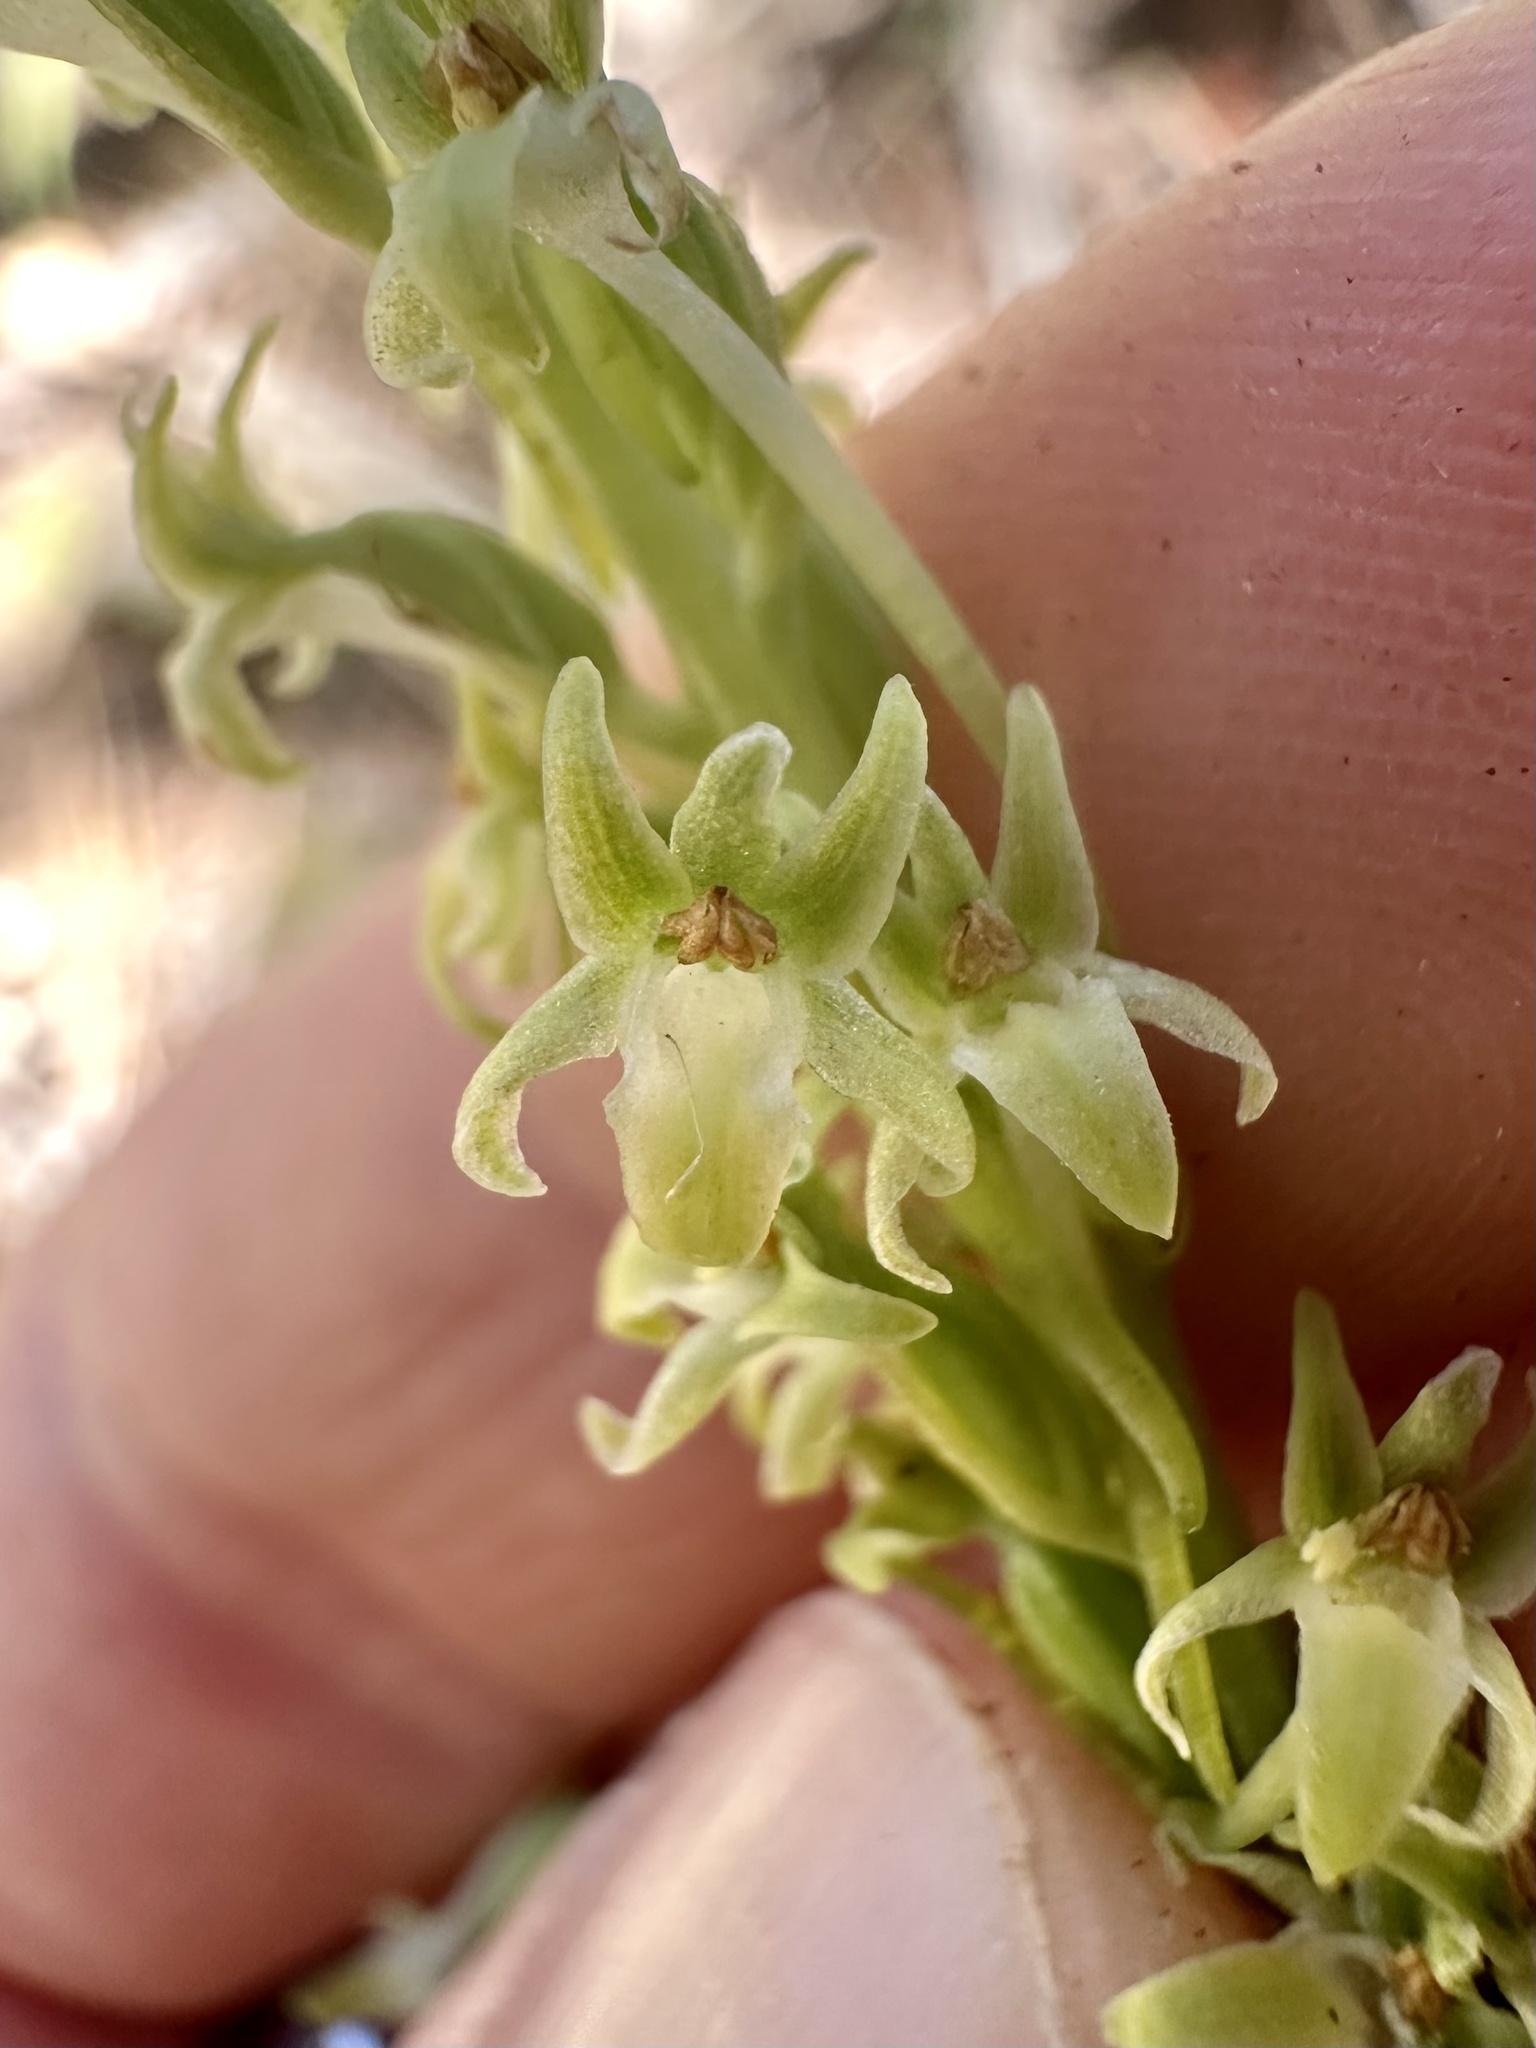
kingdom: Plantae
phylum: Tracheophyta
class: Liliopsida
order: Asparagales
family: Orchidaceae
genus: Platanthera
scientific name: Platanthera elongata
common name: Dense-flowered rein orchid
